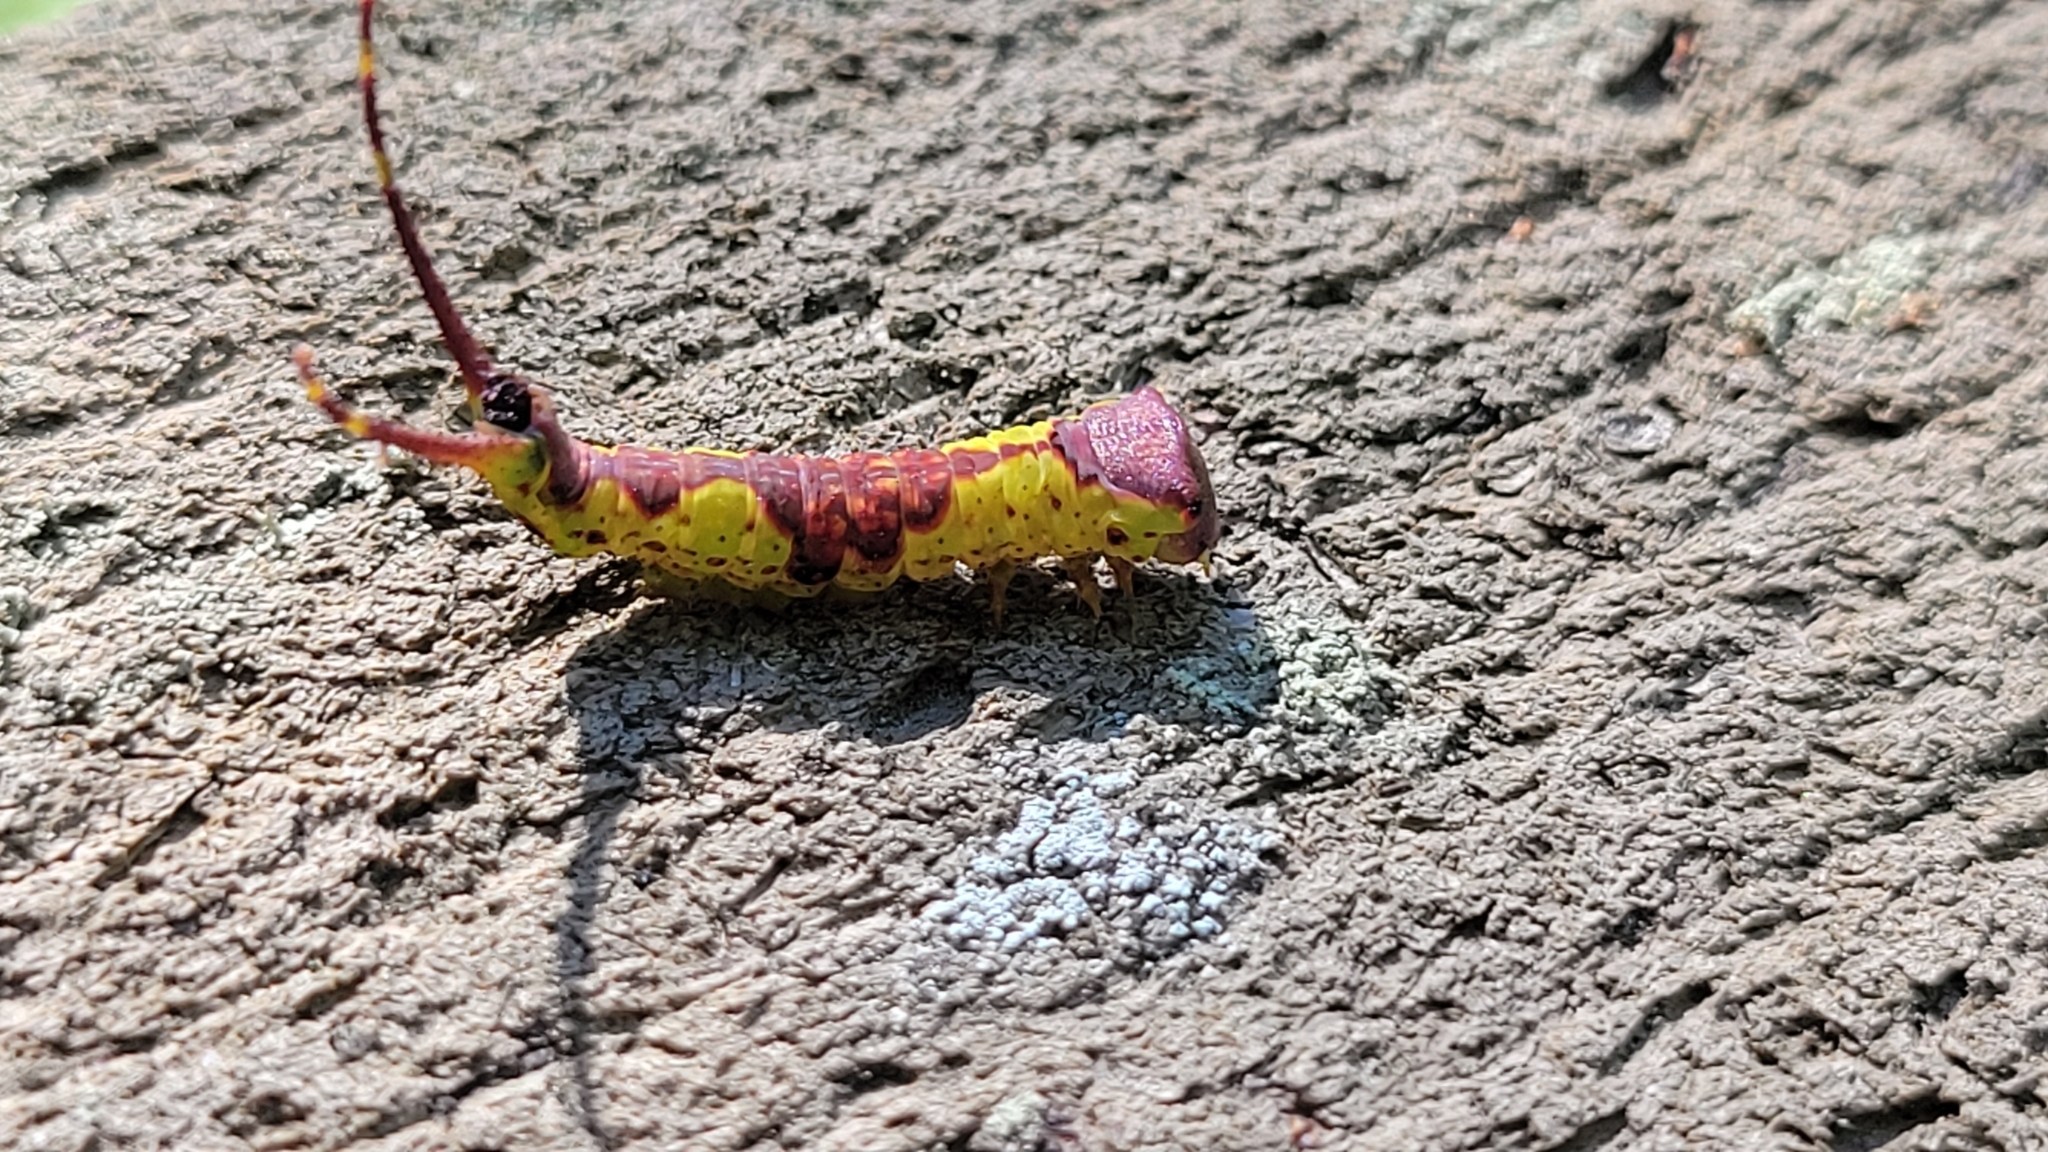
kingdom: Animalia
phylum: Arthropoda
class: Insecta
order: Lepidoptera
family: Notodontidae
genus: Furcula
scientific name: Furcula cinerea
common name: Gray furcula
